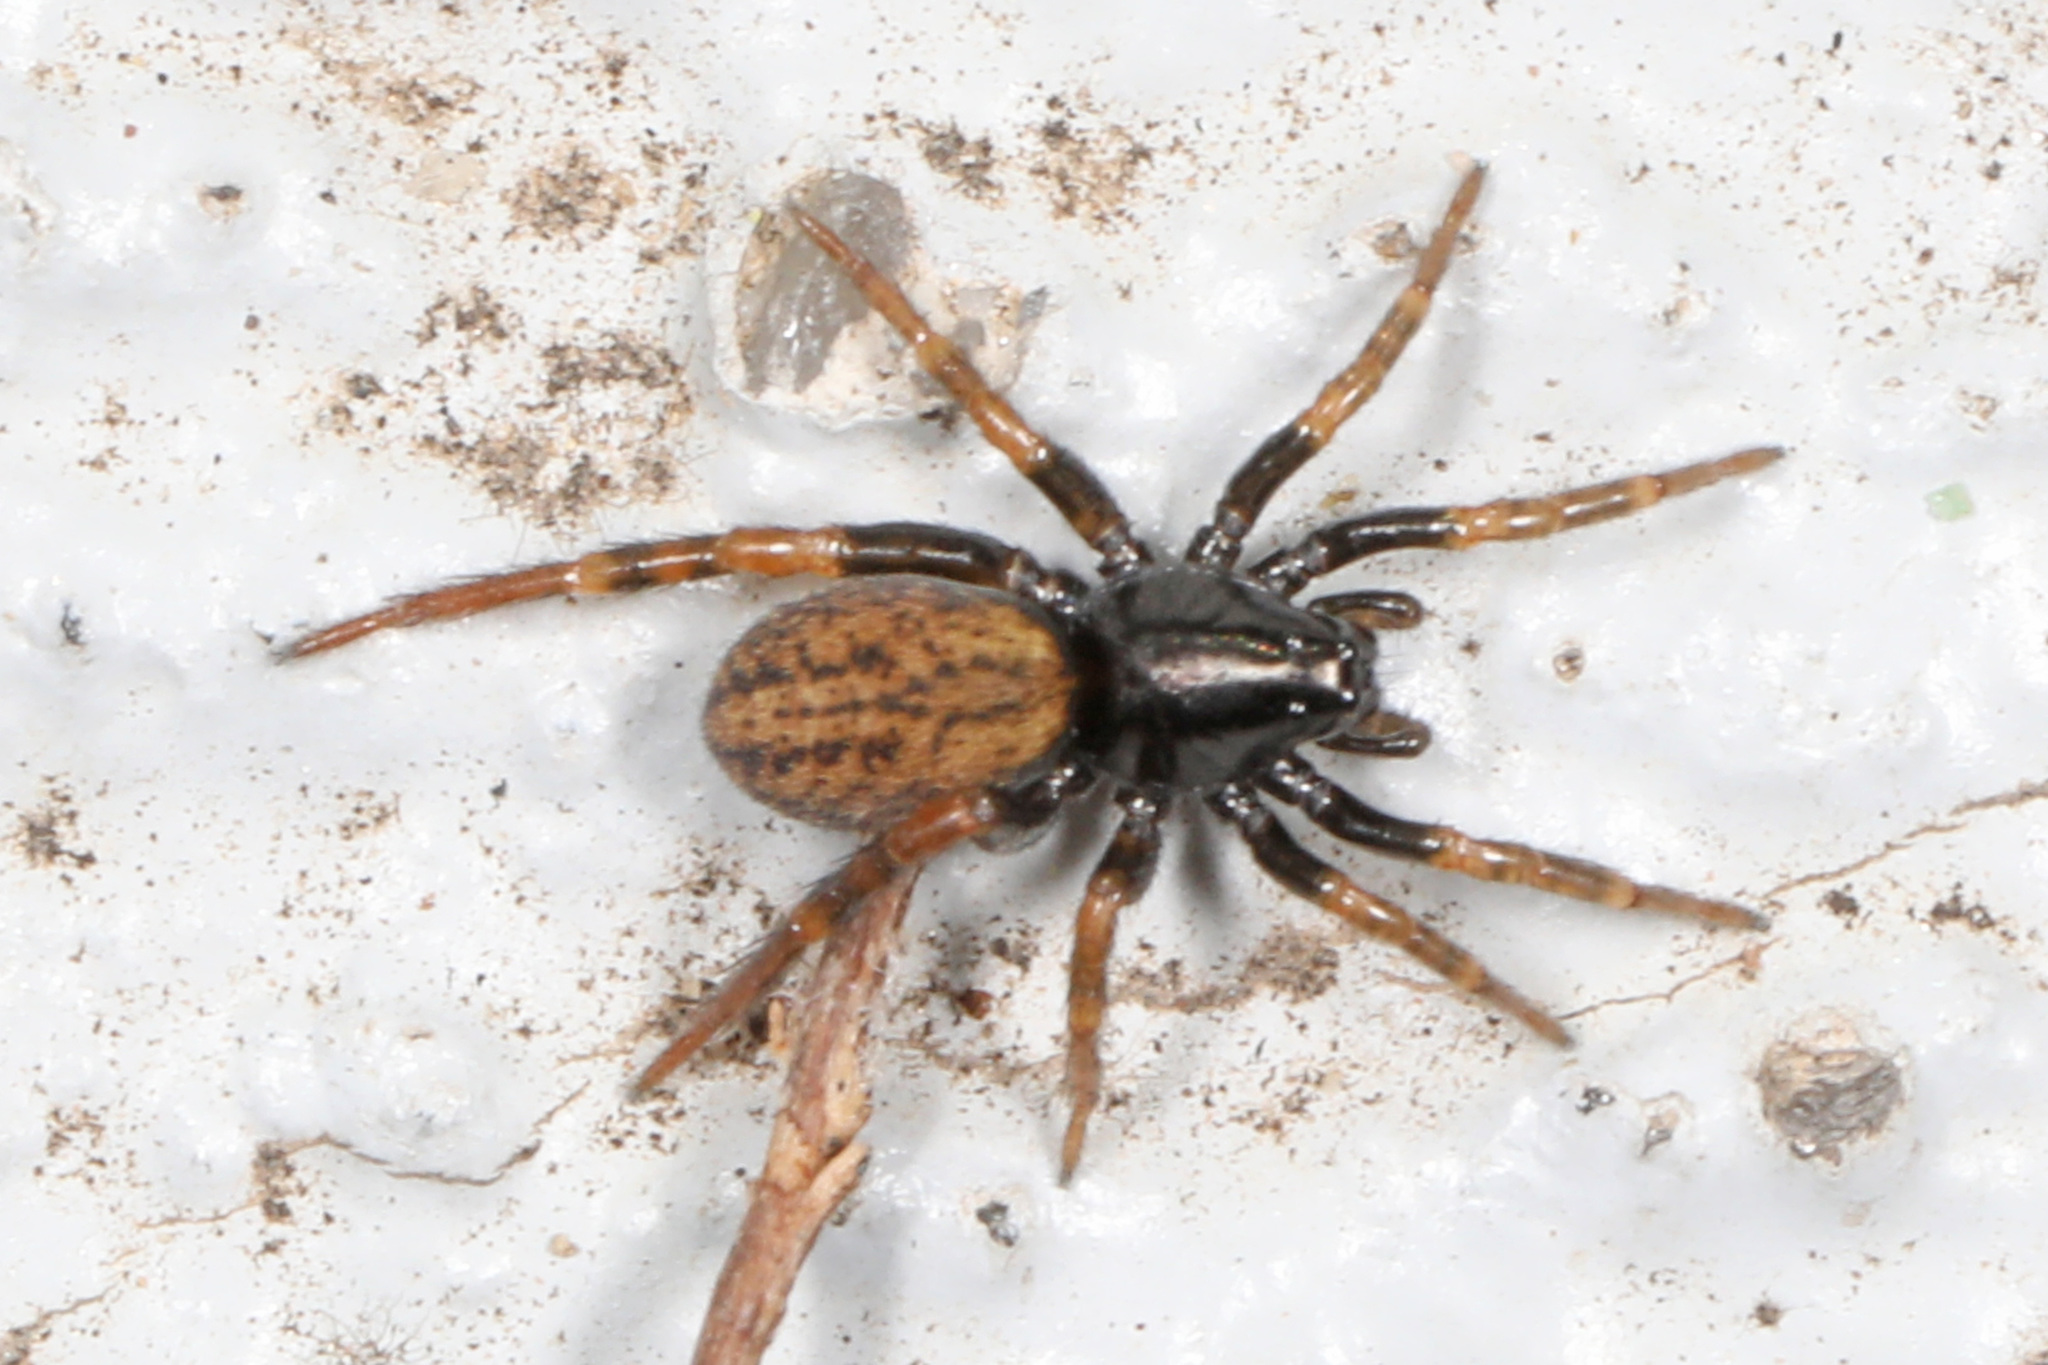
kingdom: Animalia
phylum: Arthropoda
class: Arachnida
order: Araneae
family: Lycosidae
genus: Allocosa
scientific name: Allocosa funerea
